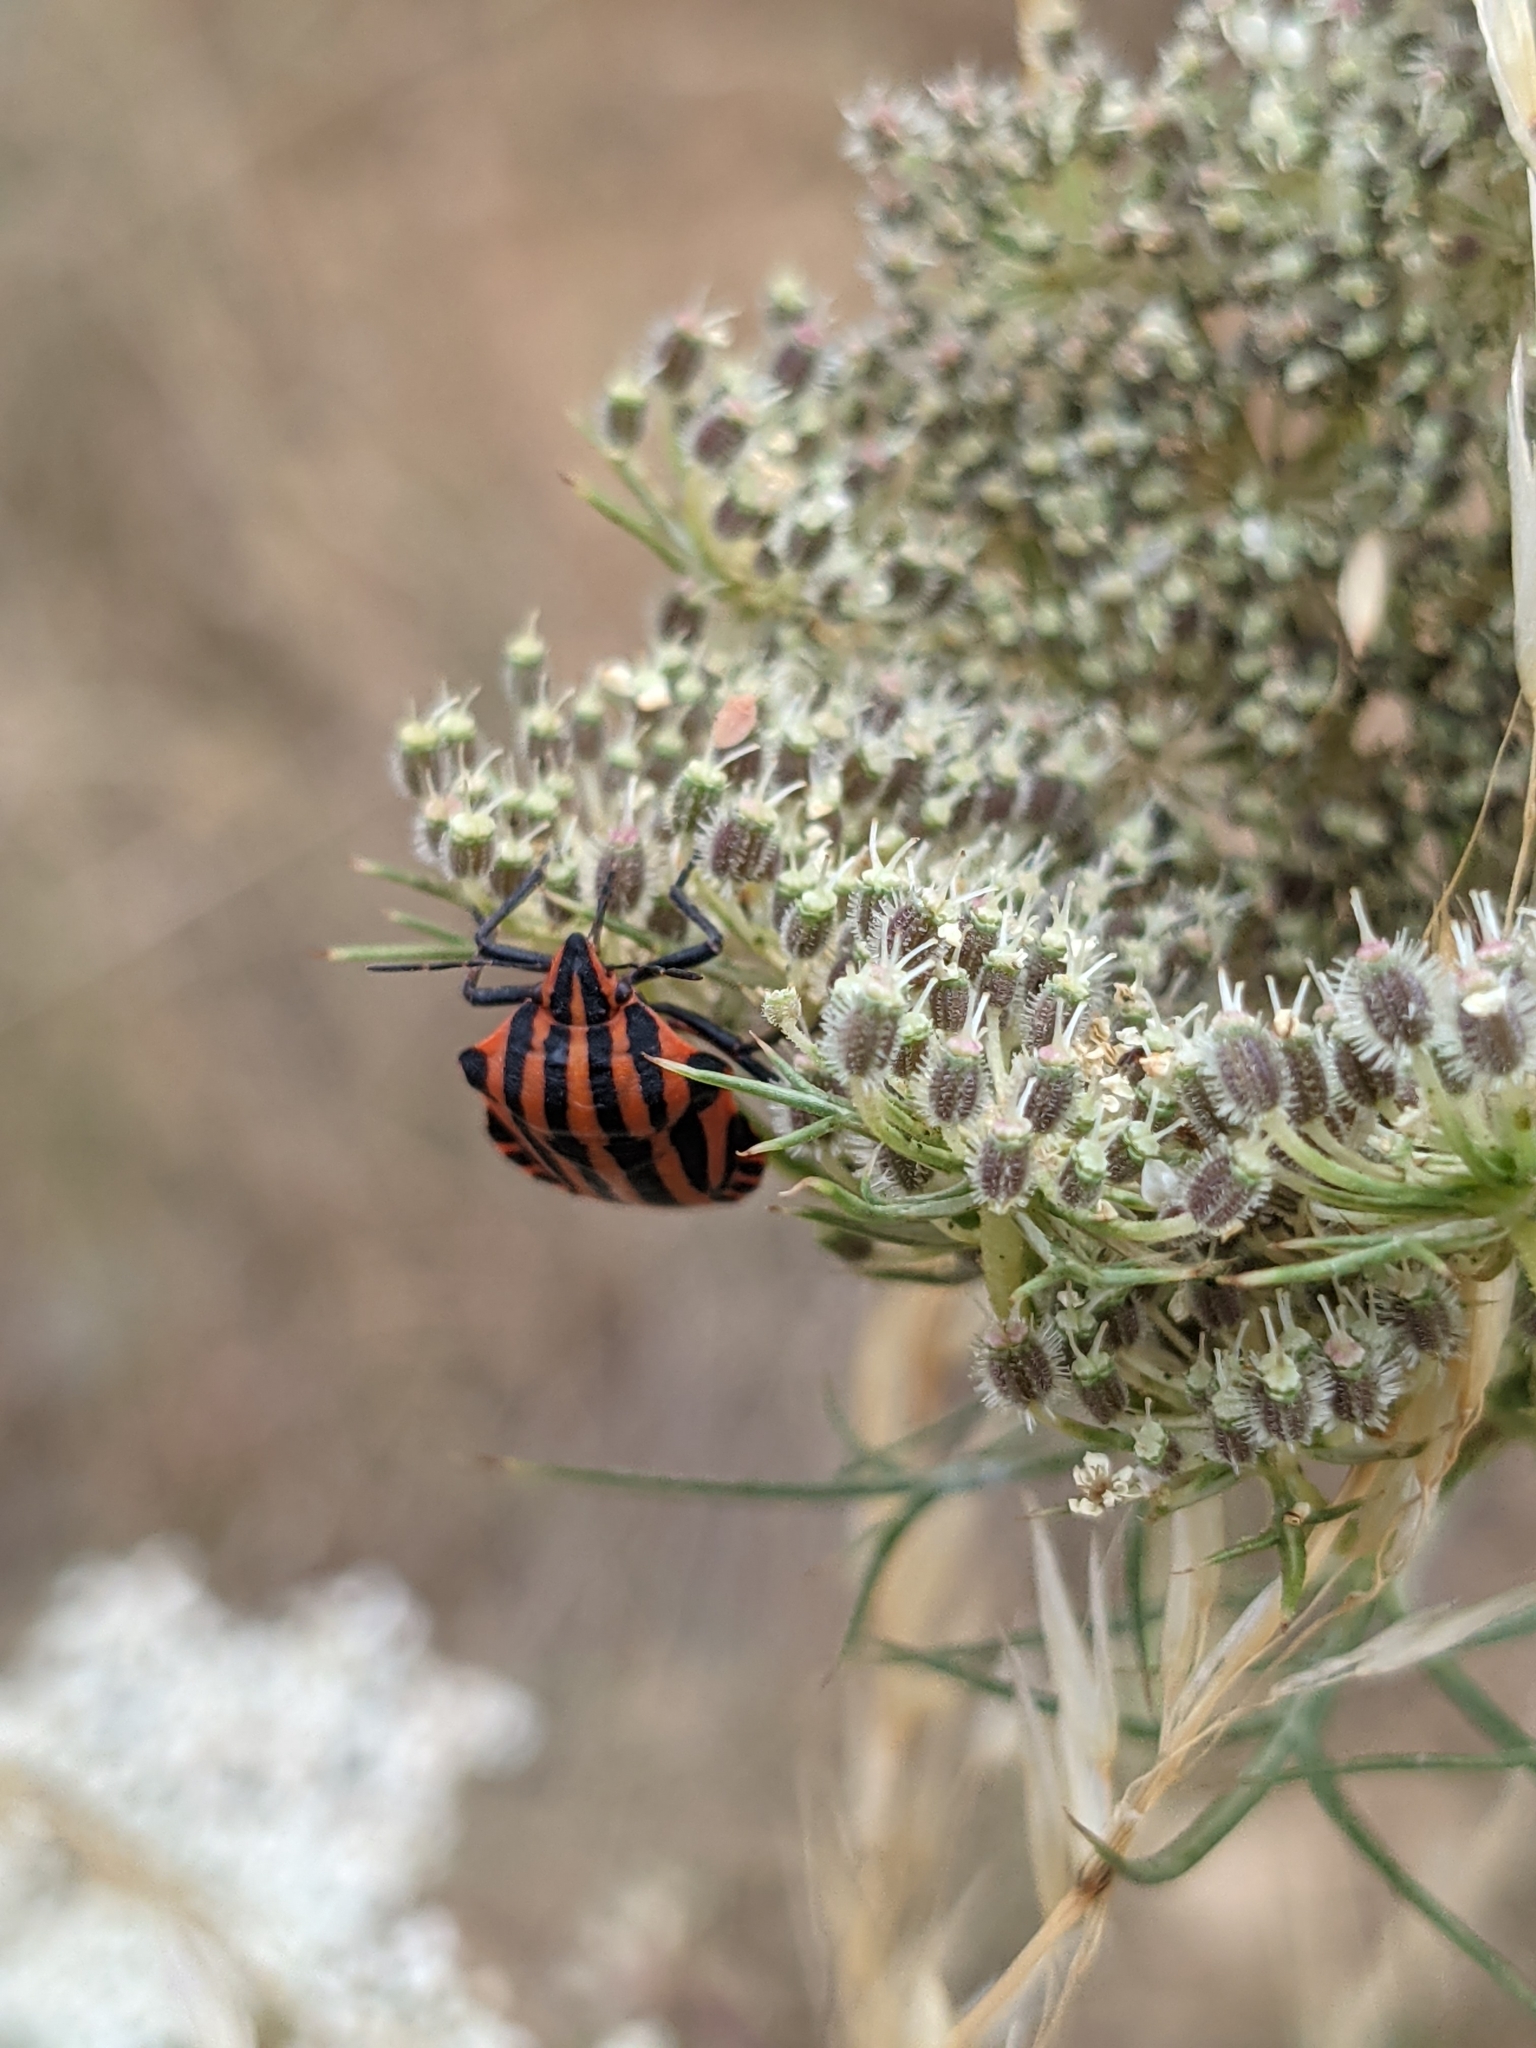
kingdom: Animalia
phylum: Arthropoda
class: Insecta
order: Hemiptera
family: Pentatomidae
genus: Graphosoma
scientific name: Graphosoma italicum
